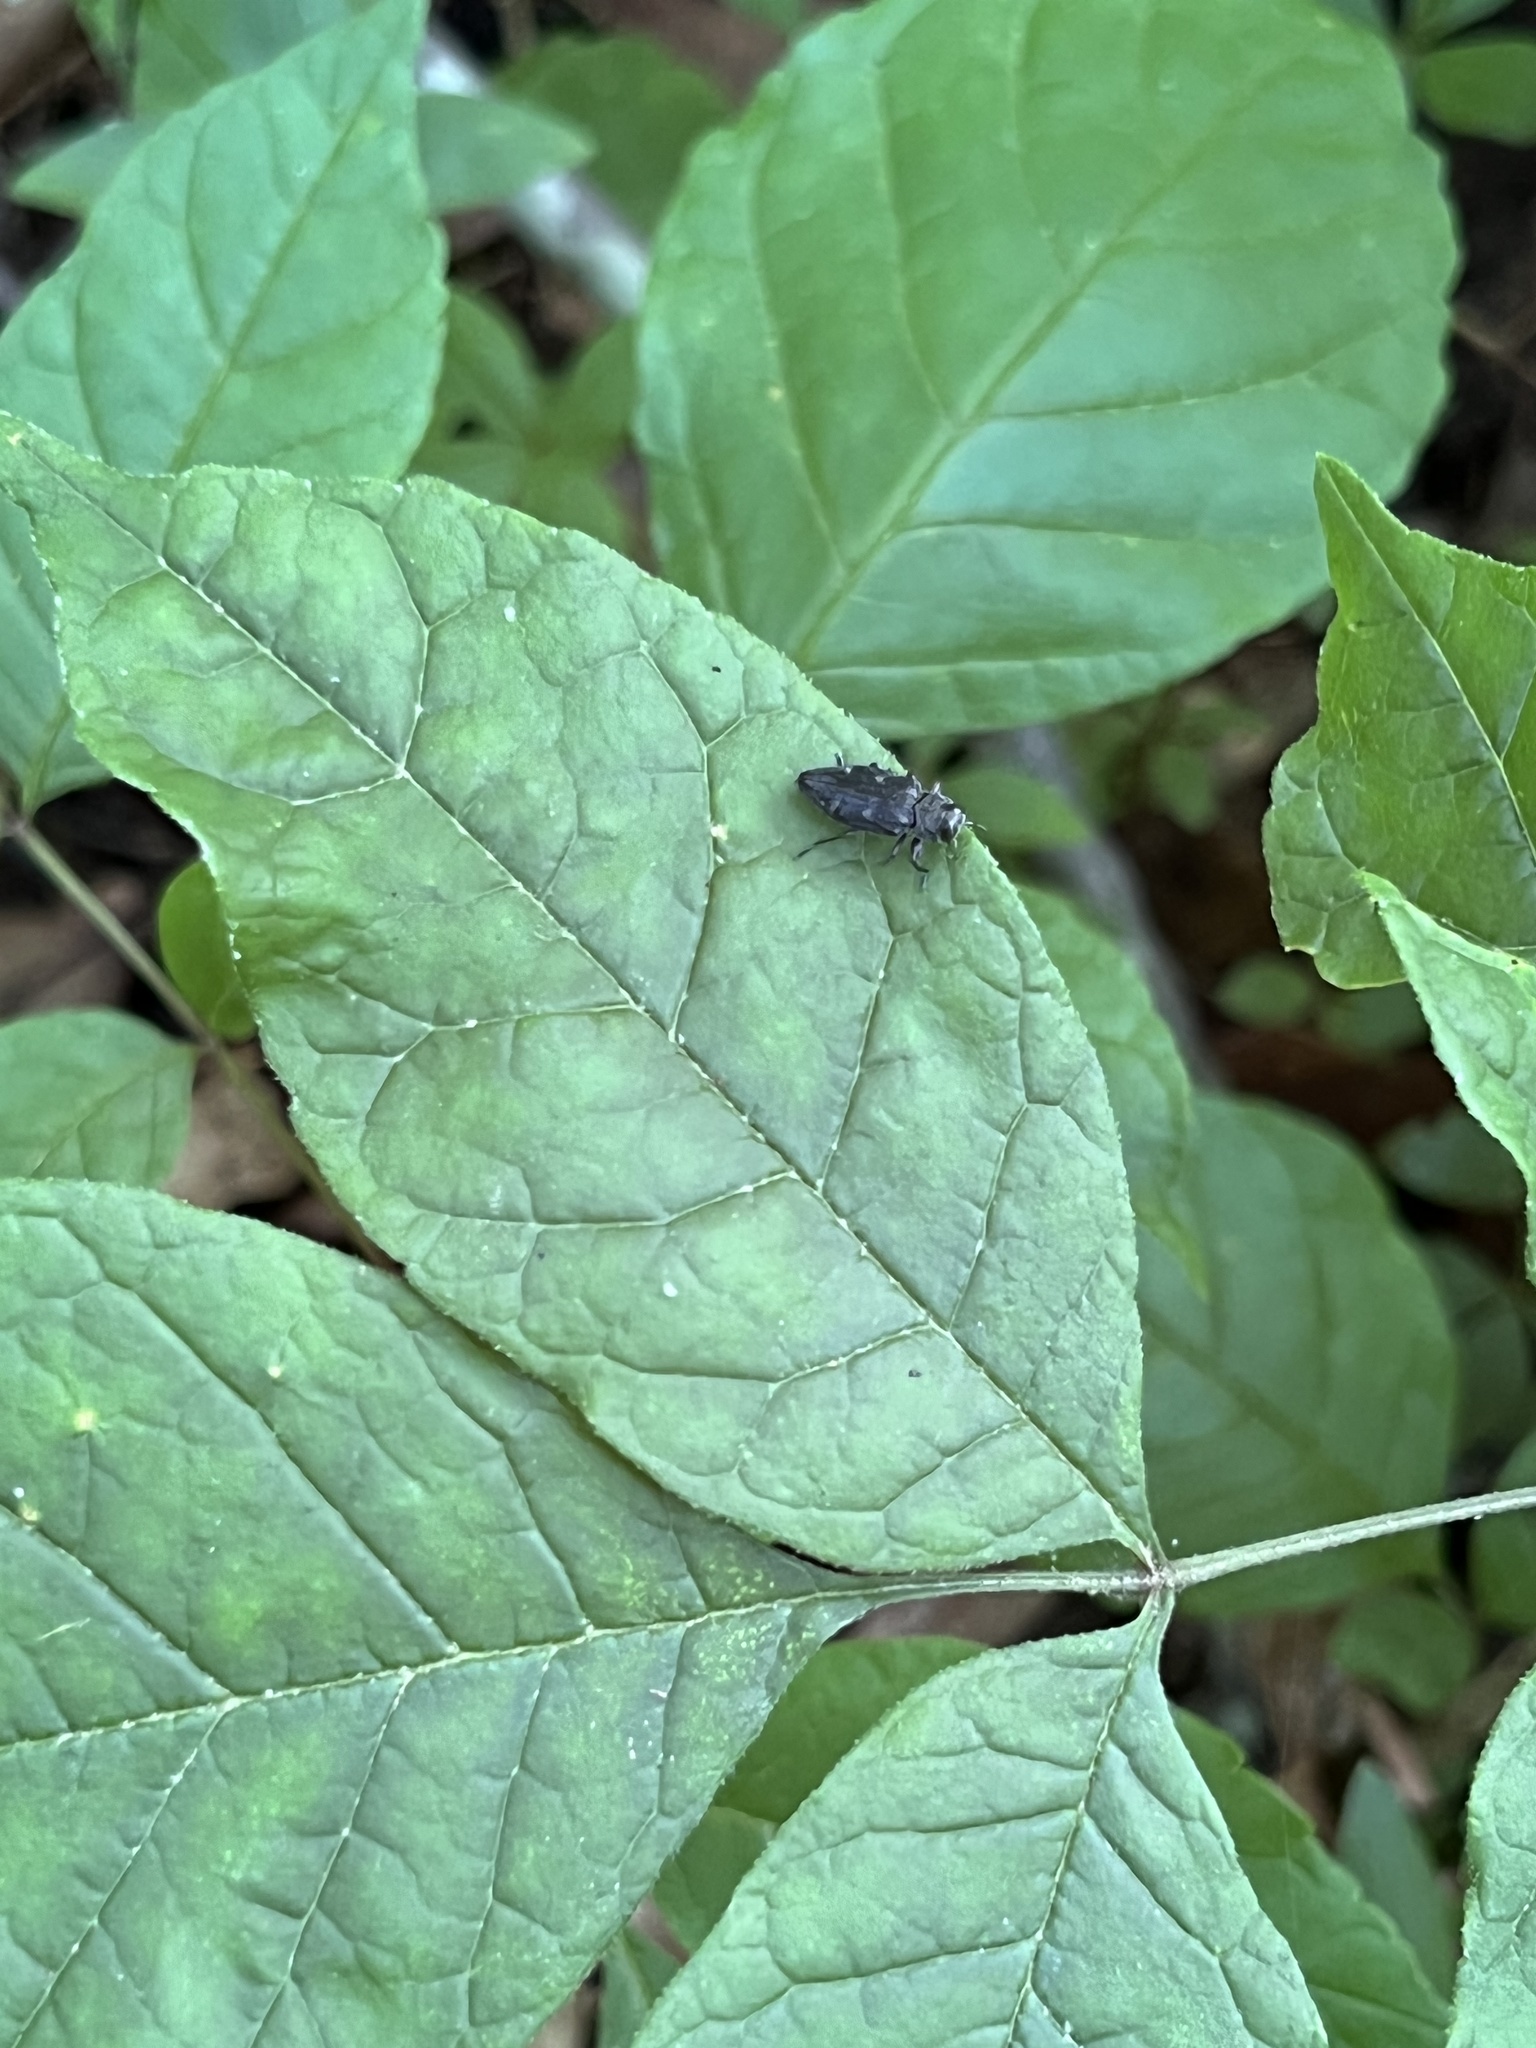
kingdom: Animalia
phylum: Arthropoda
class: Insecta
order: Coleoptera
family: Buprestidae
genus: Chrysobothris
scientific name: Chrysobothris sexsignata
